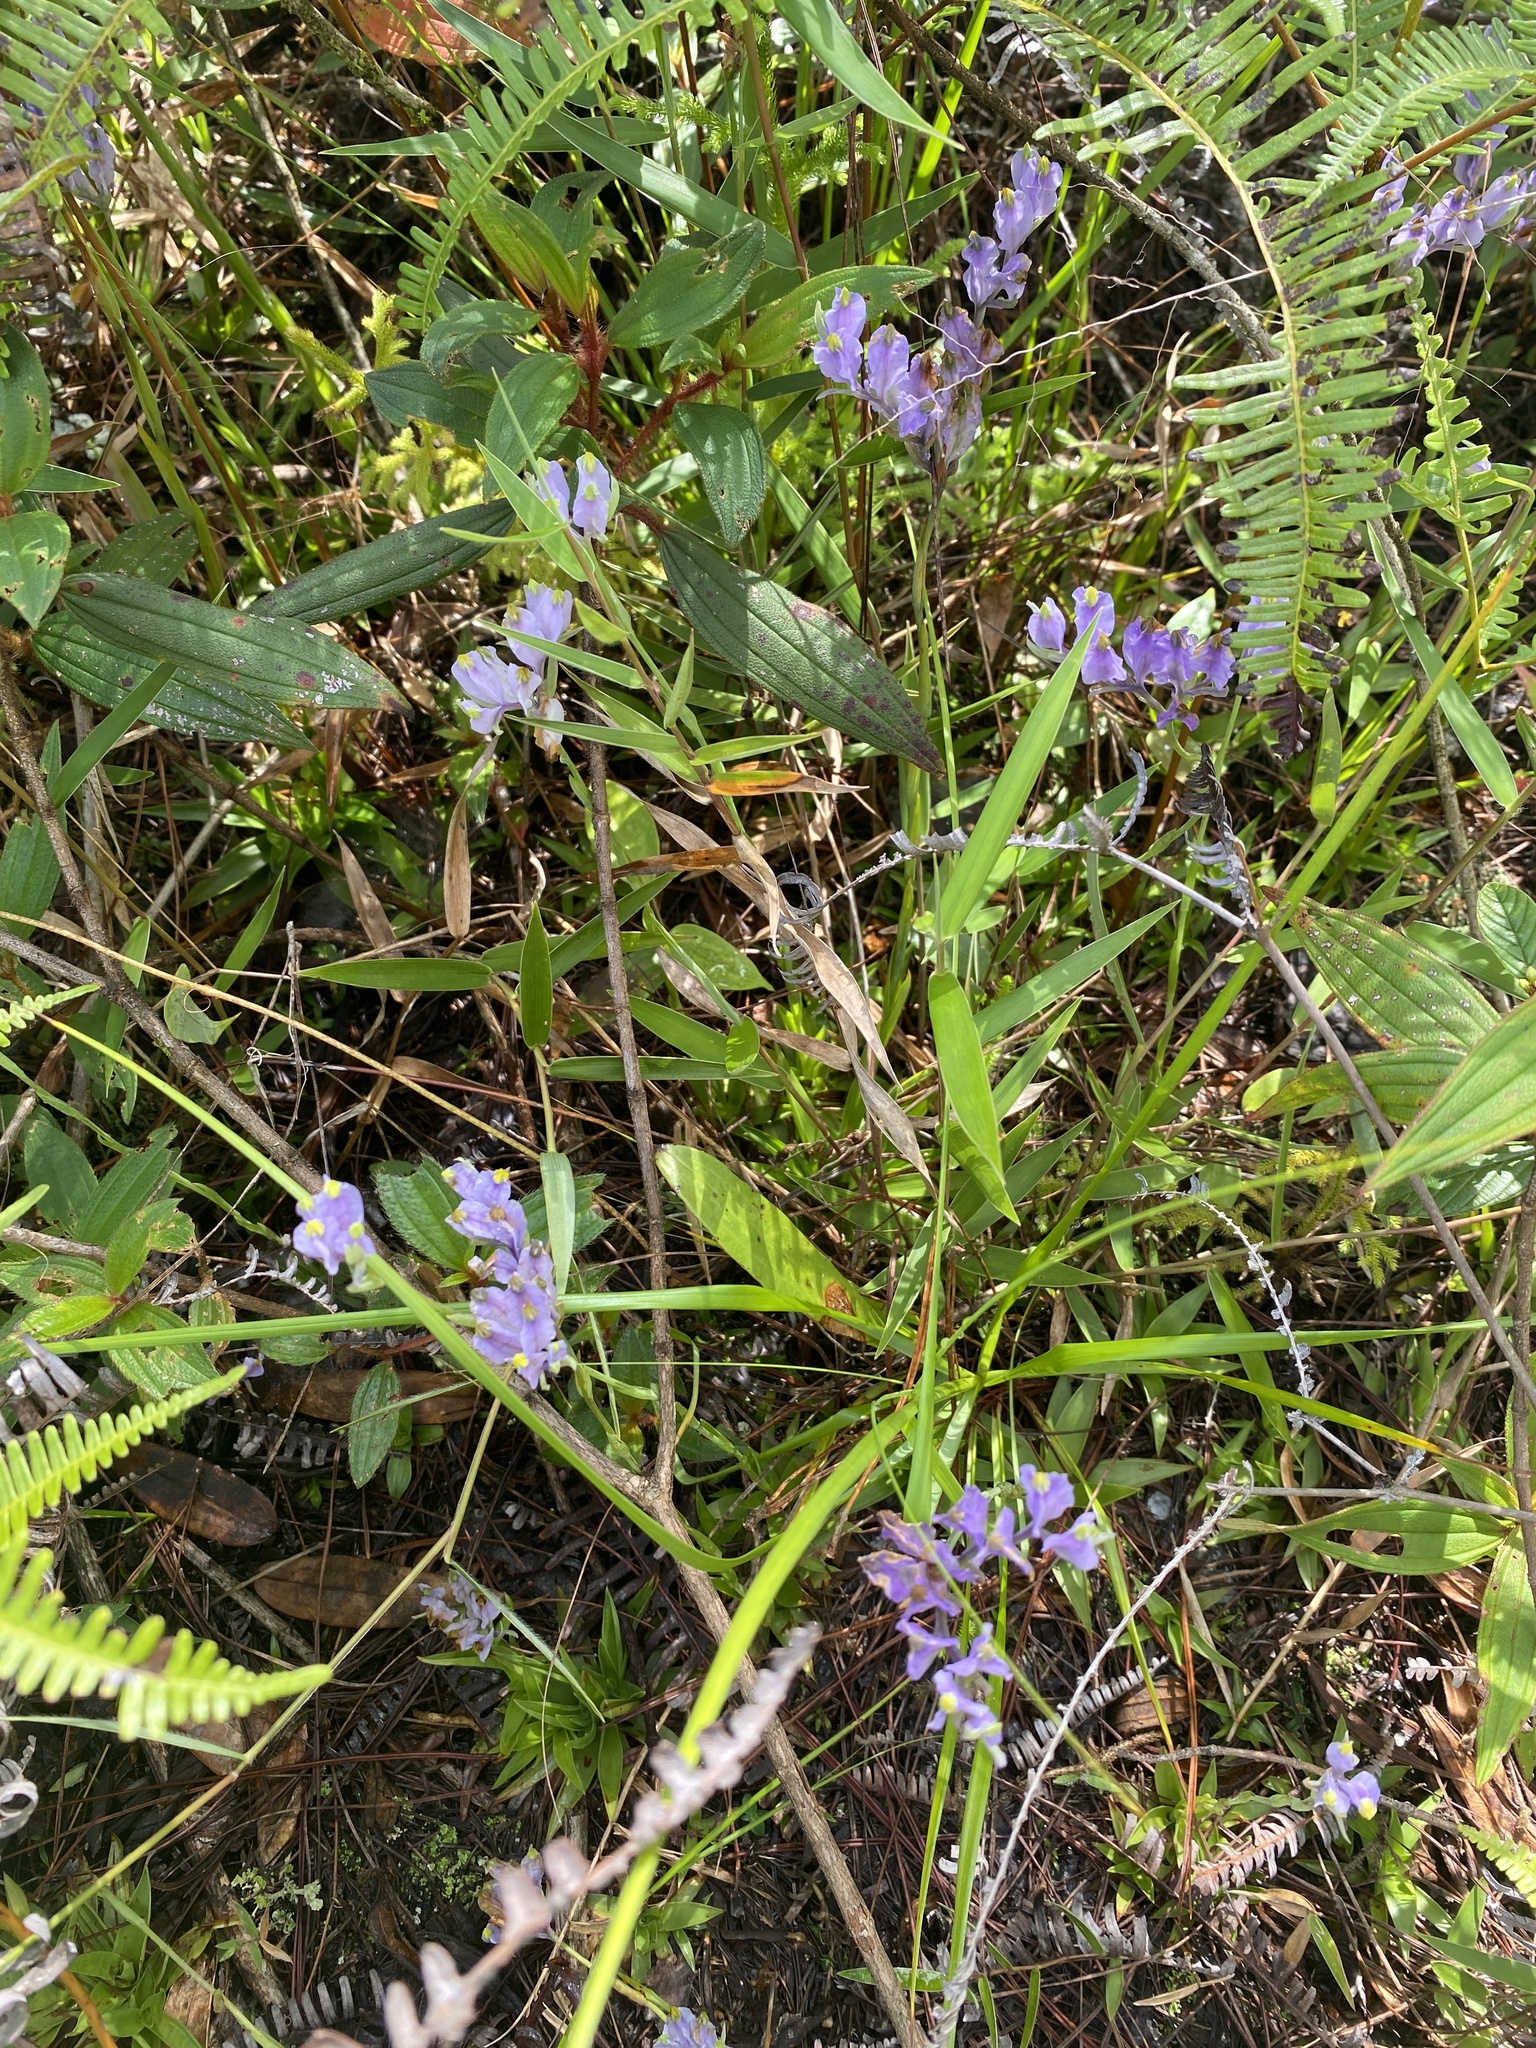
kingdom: Plantae
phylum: Tracheophyta
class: Liliopsida
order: Dioscoreales
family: Burmanniaceae
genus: Burmannia
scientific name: Burmannia disticha
